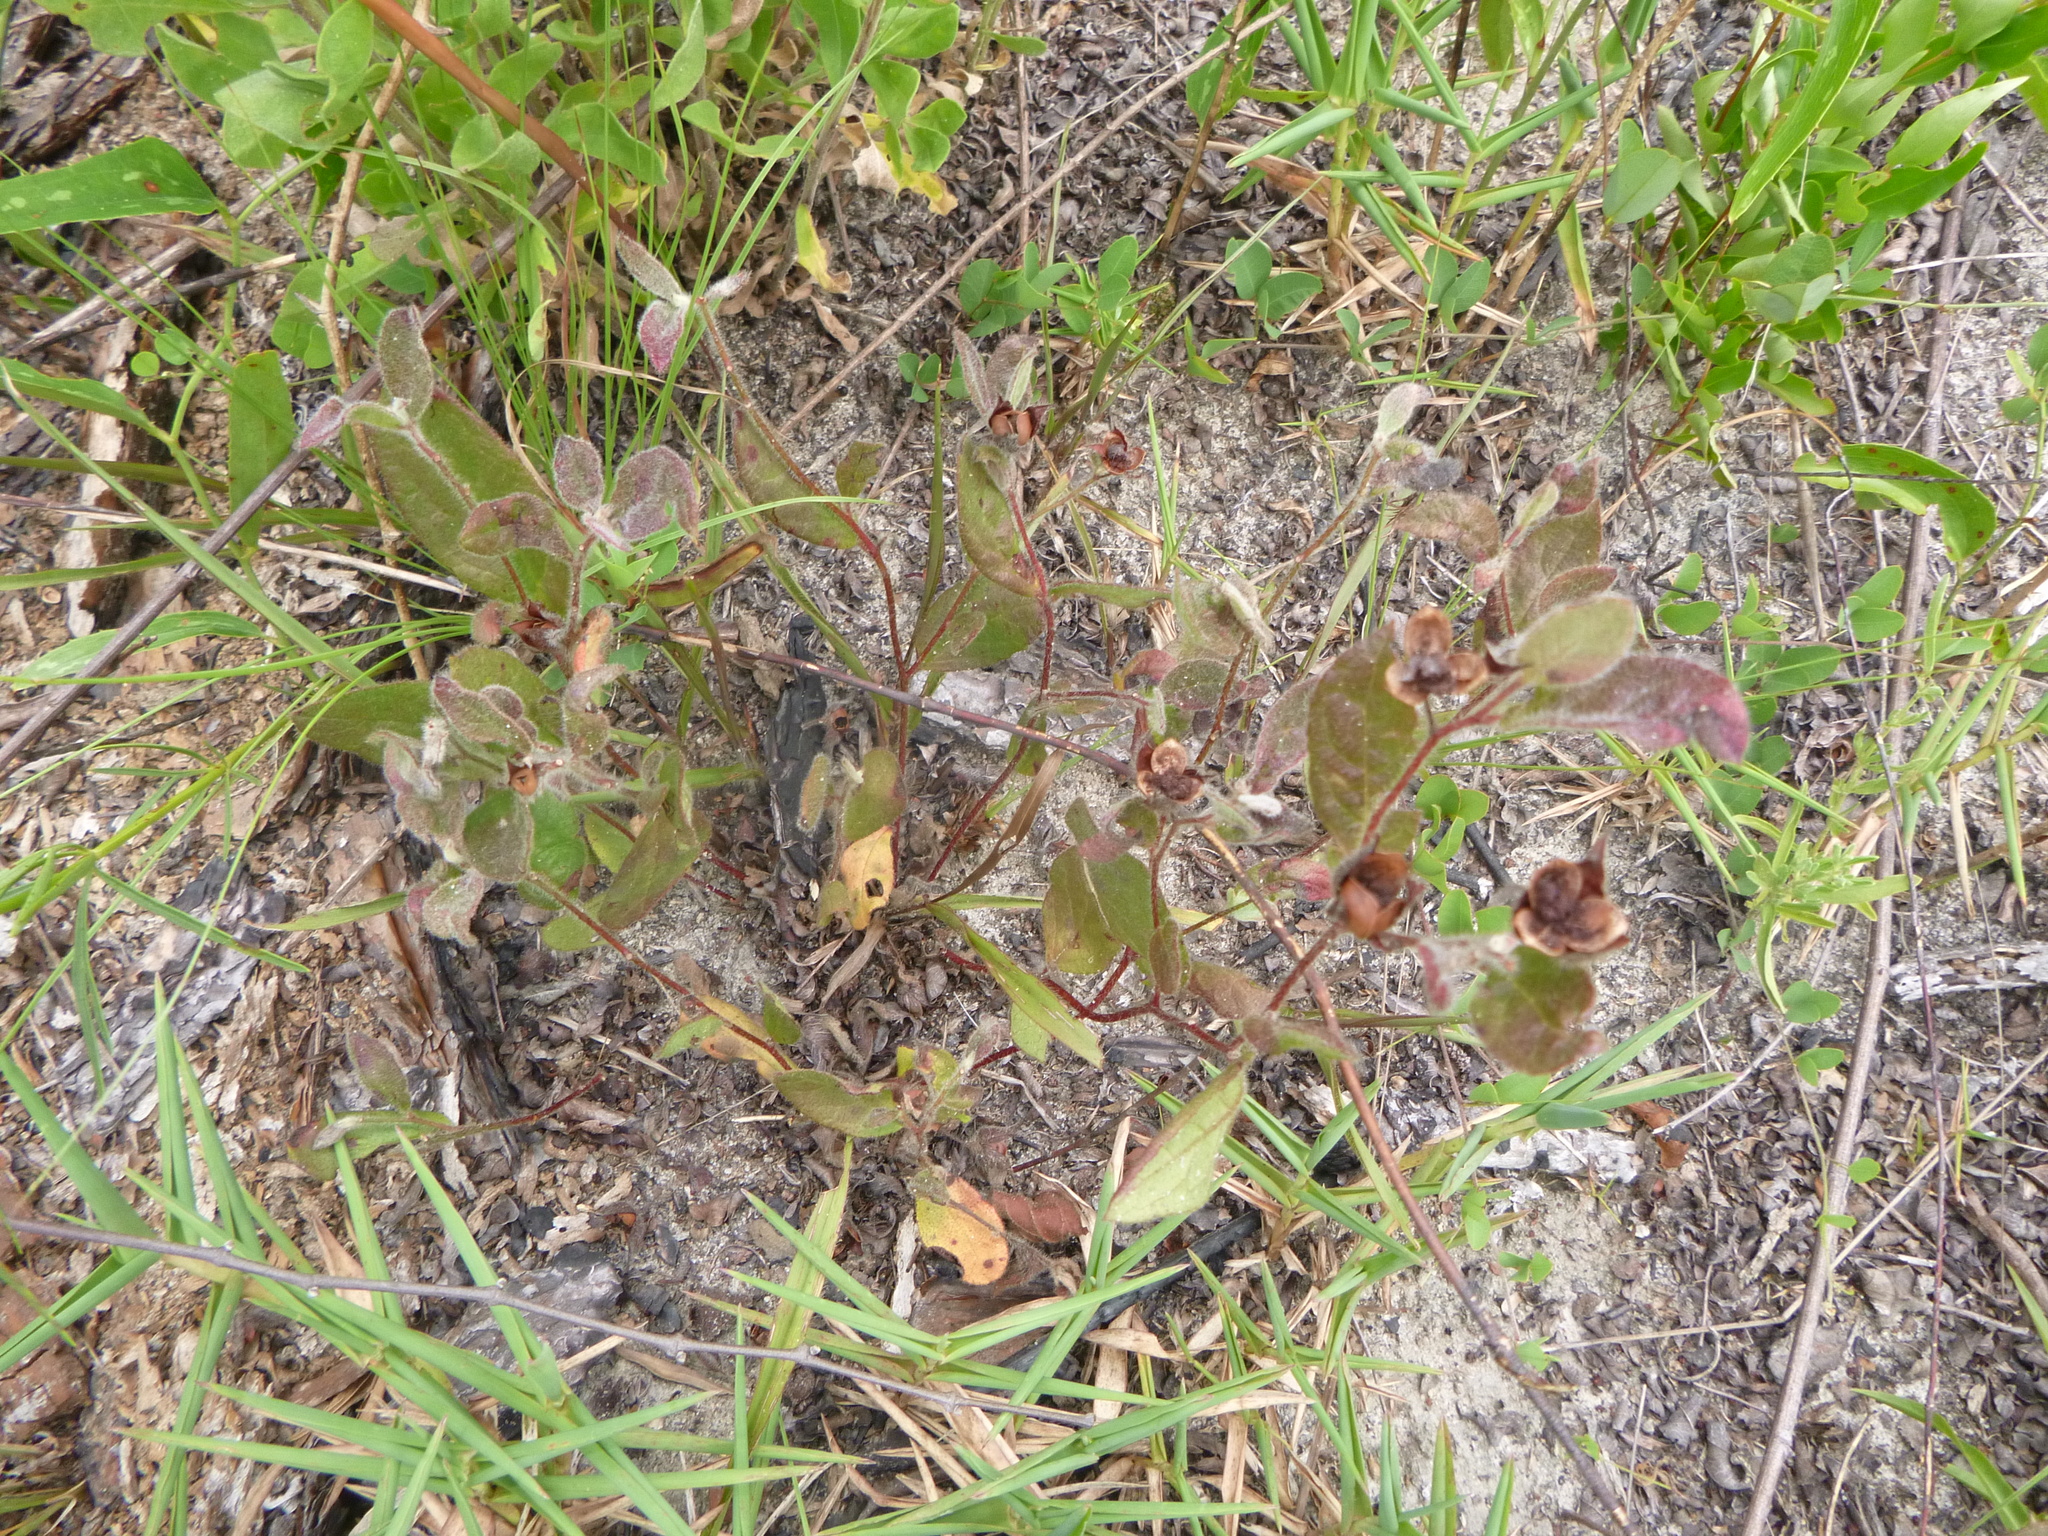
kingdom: Plantae
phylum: Tracheophyta
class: Magnoliopsida
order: Malvales
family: Cistaceae
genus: Crocanthemum
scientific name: Crocanthemum carolinianum
